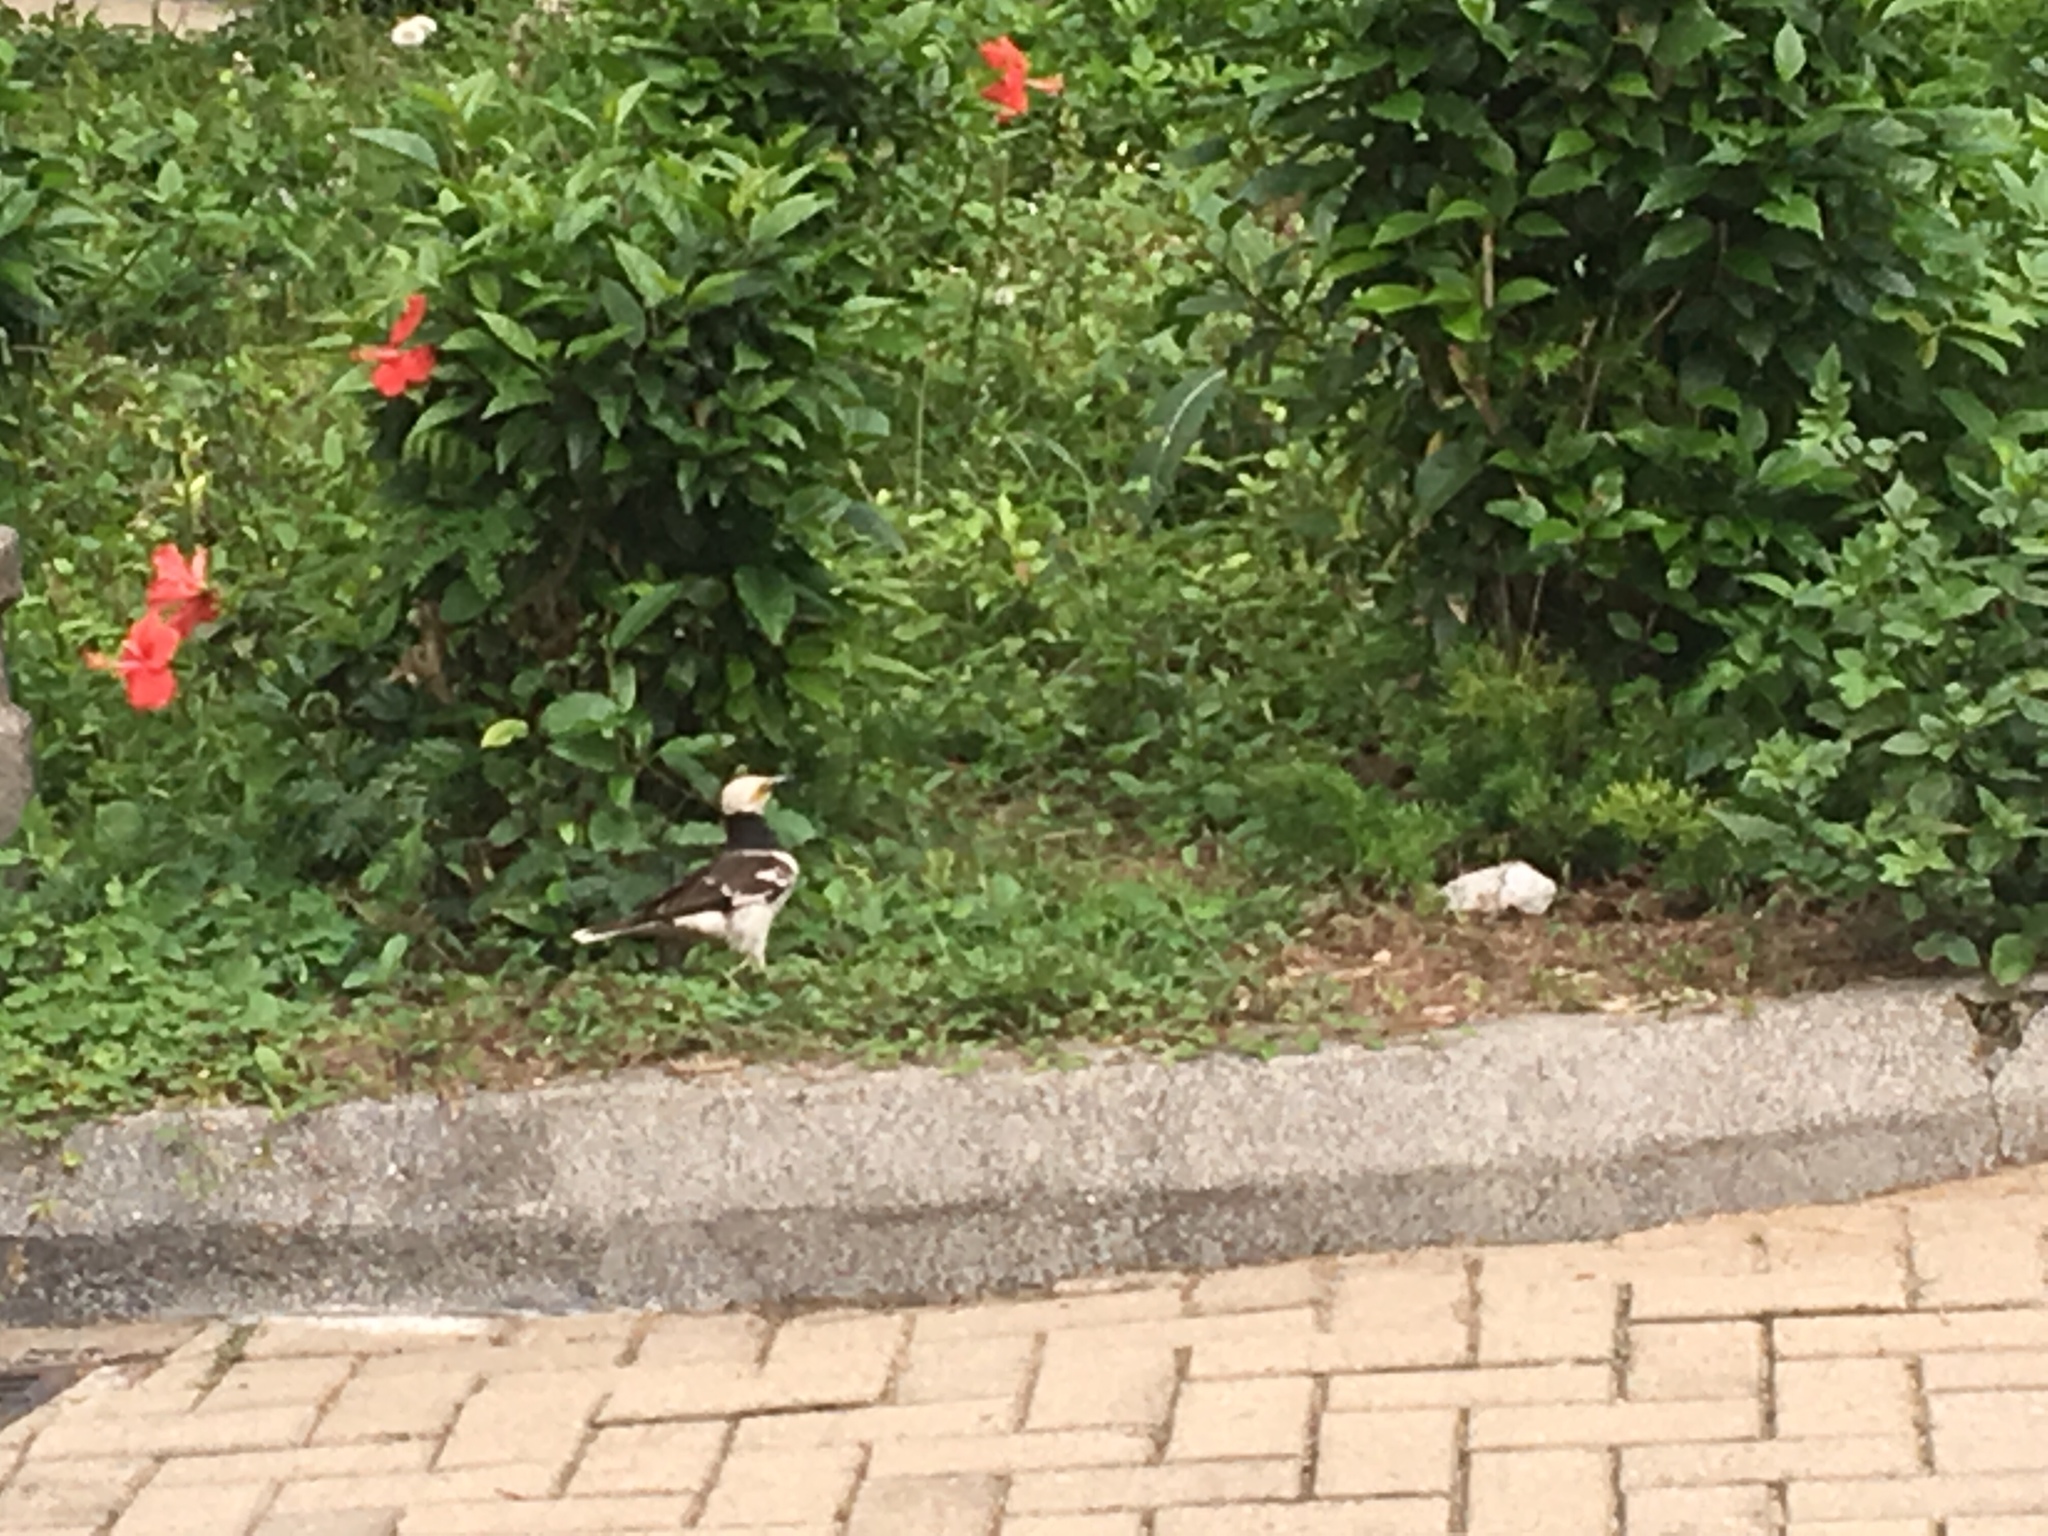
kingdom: Animalia
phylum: Chordata
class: Aves
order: Passeriformes
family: Sturnidae
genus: Gracupica
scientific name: Gracupica nigricollis
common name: Black-collared starling
